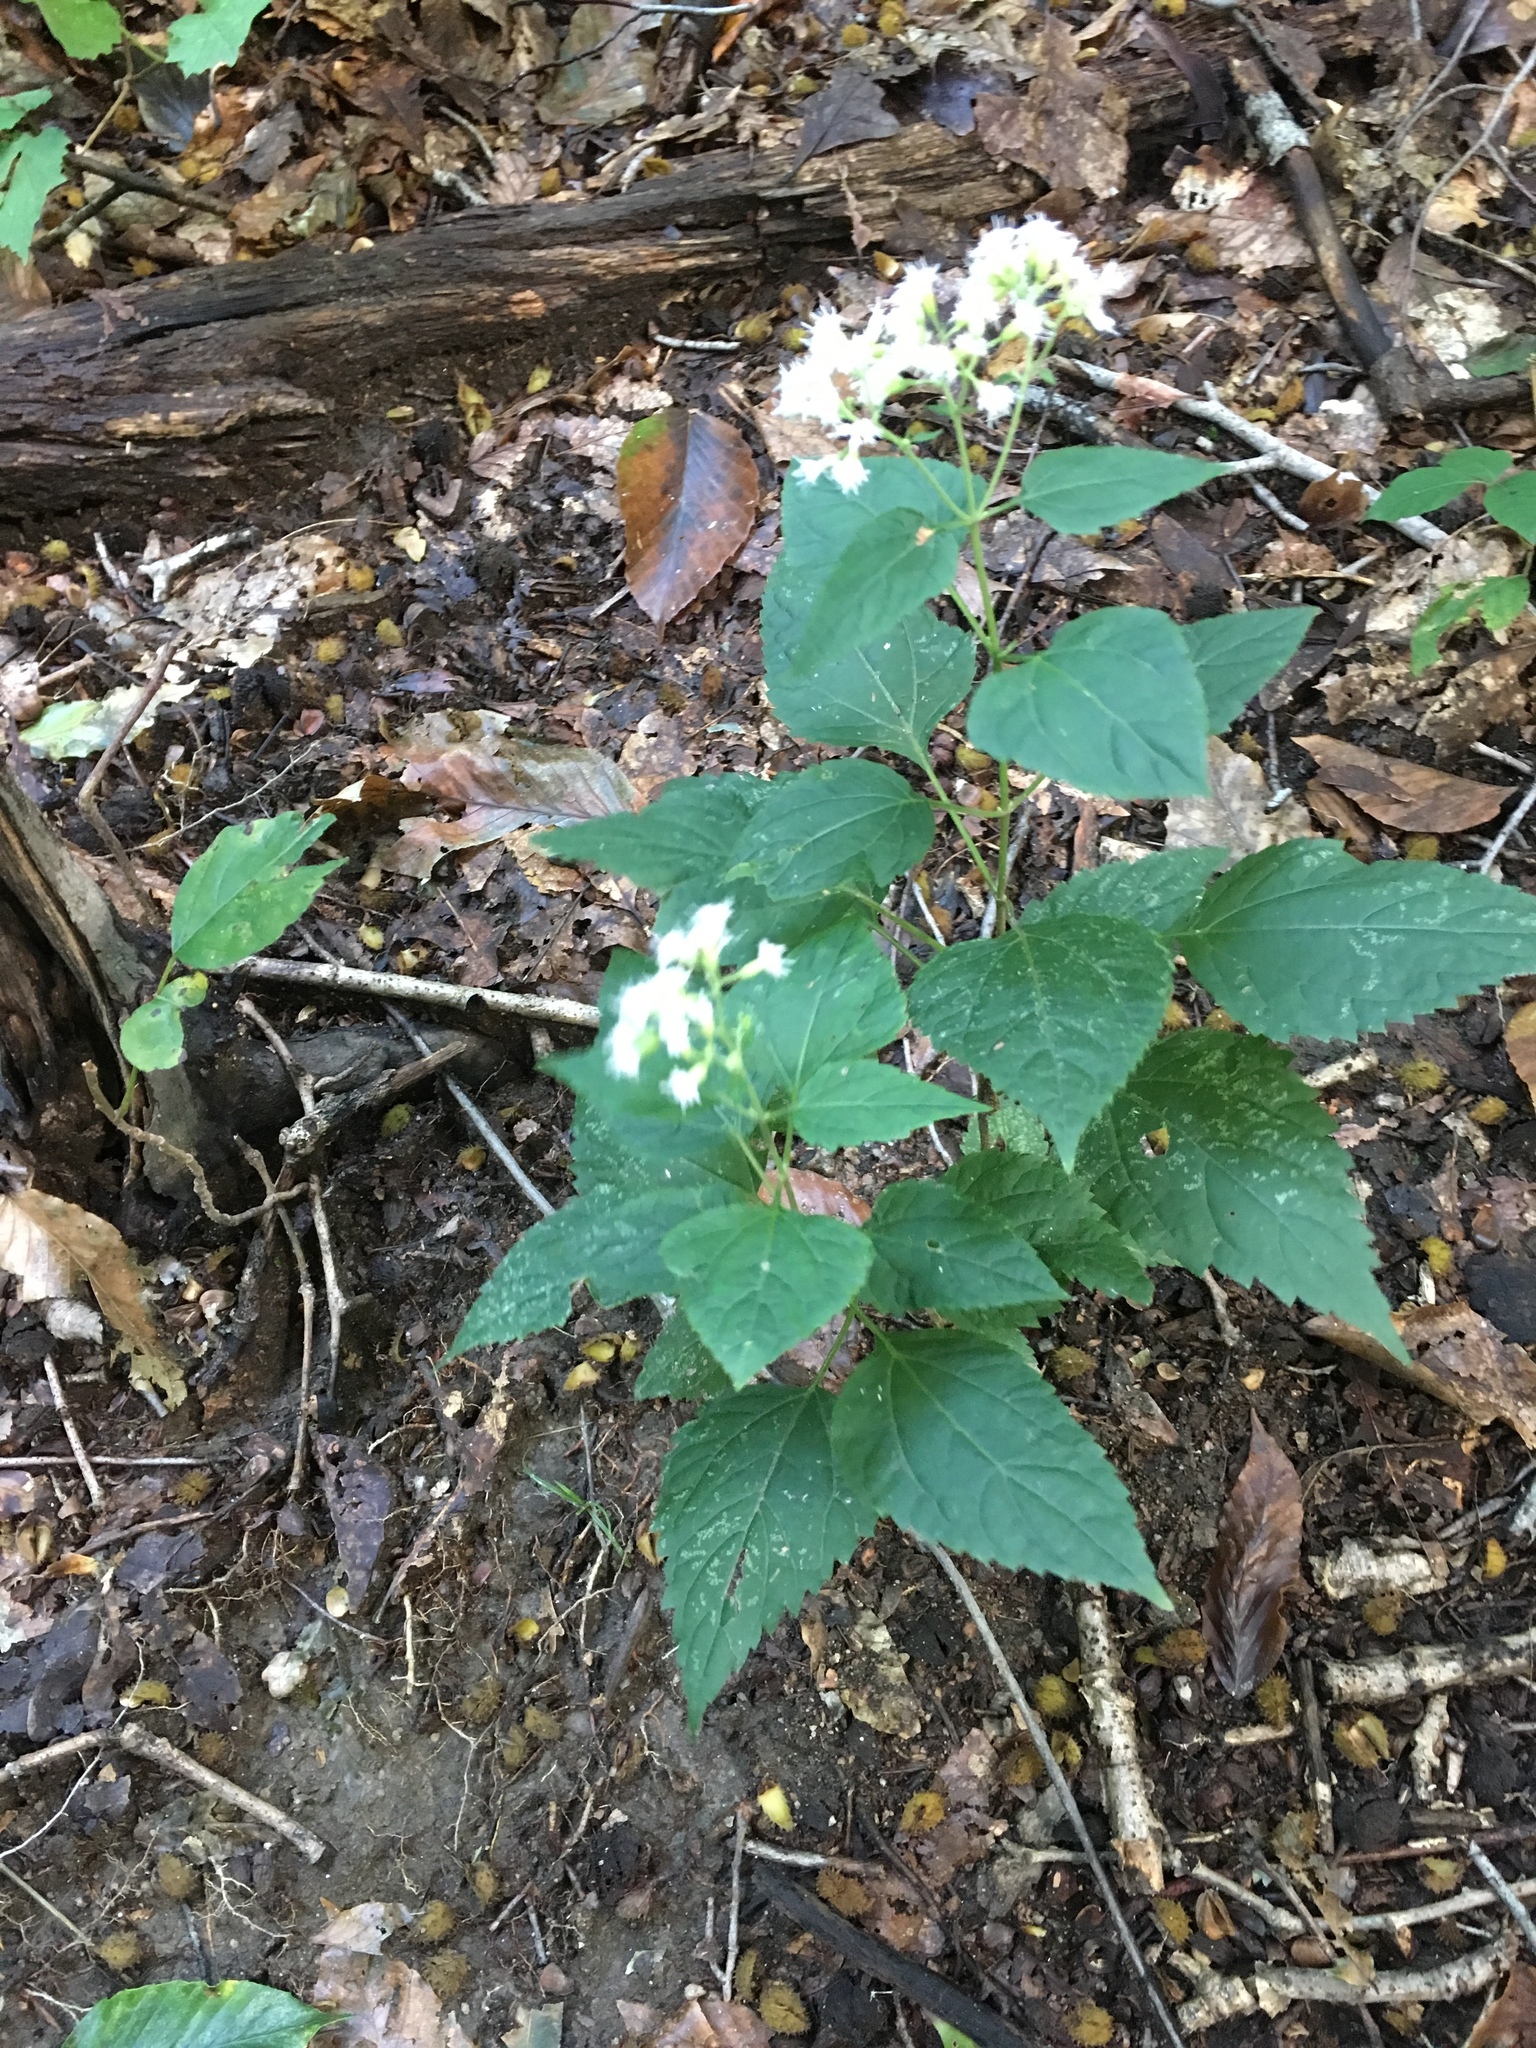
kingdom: Plantae
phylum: Tracheophyta
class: Magnoliopsida
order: Asterales
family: Asteraceae
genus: Ageratina
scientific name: Ageratina altissima
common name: White snakeroot
